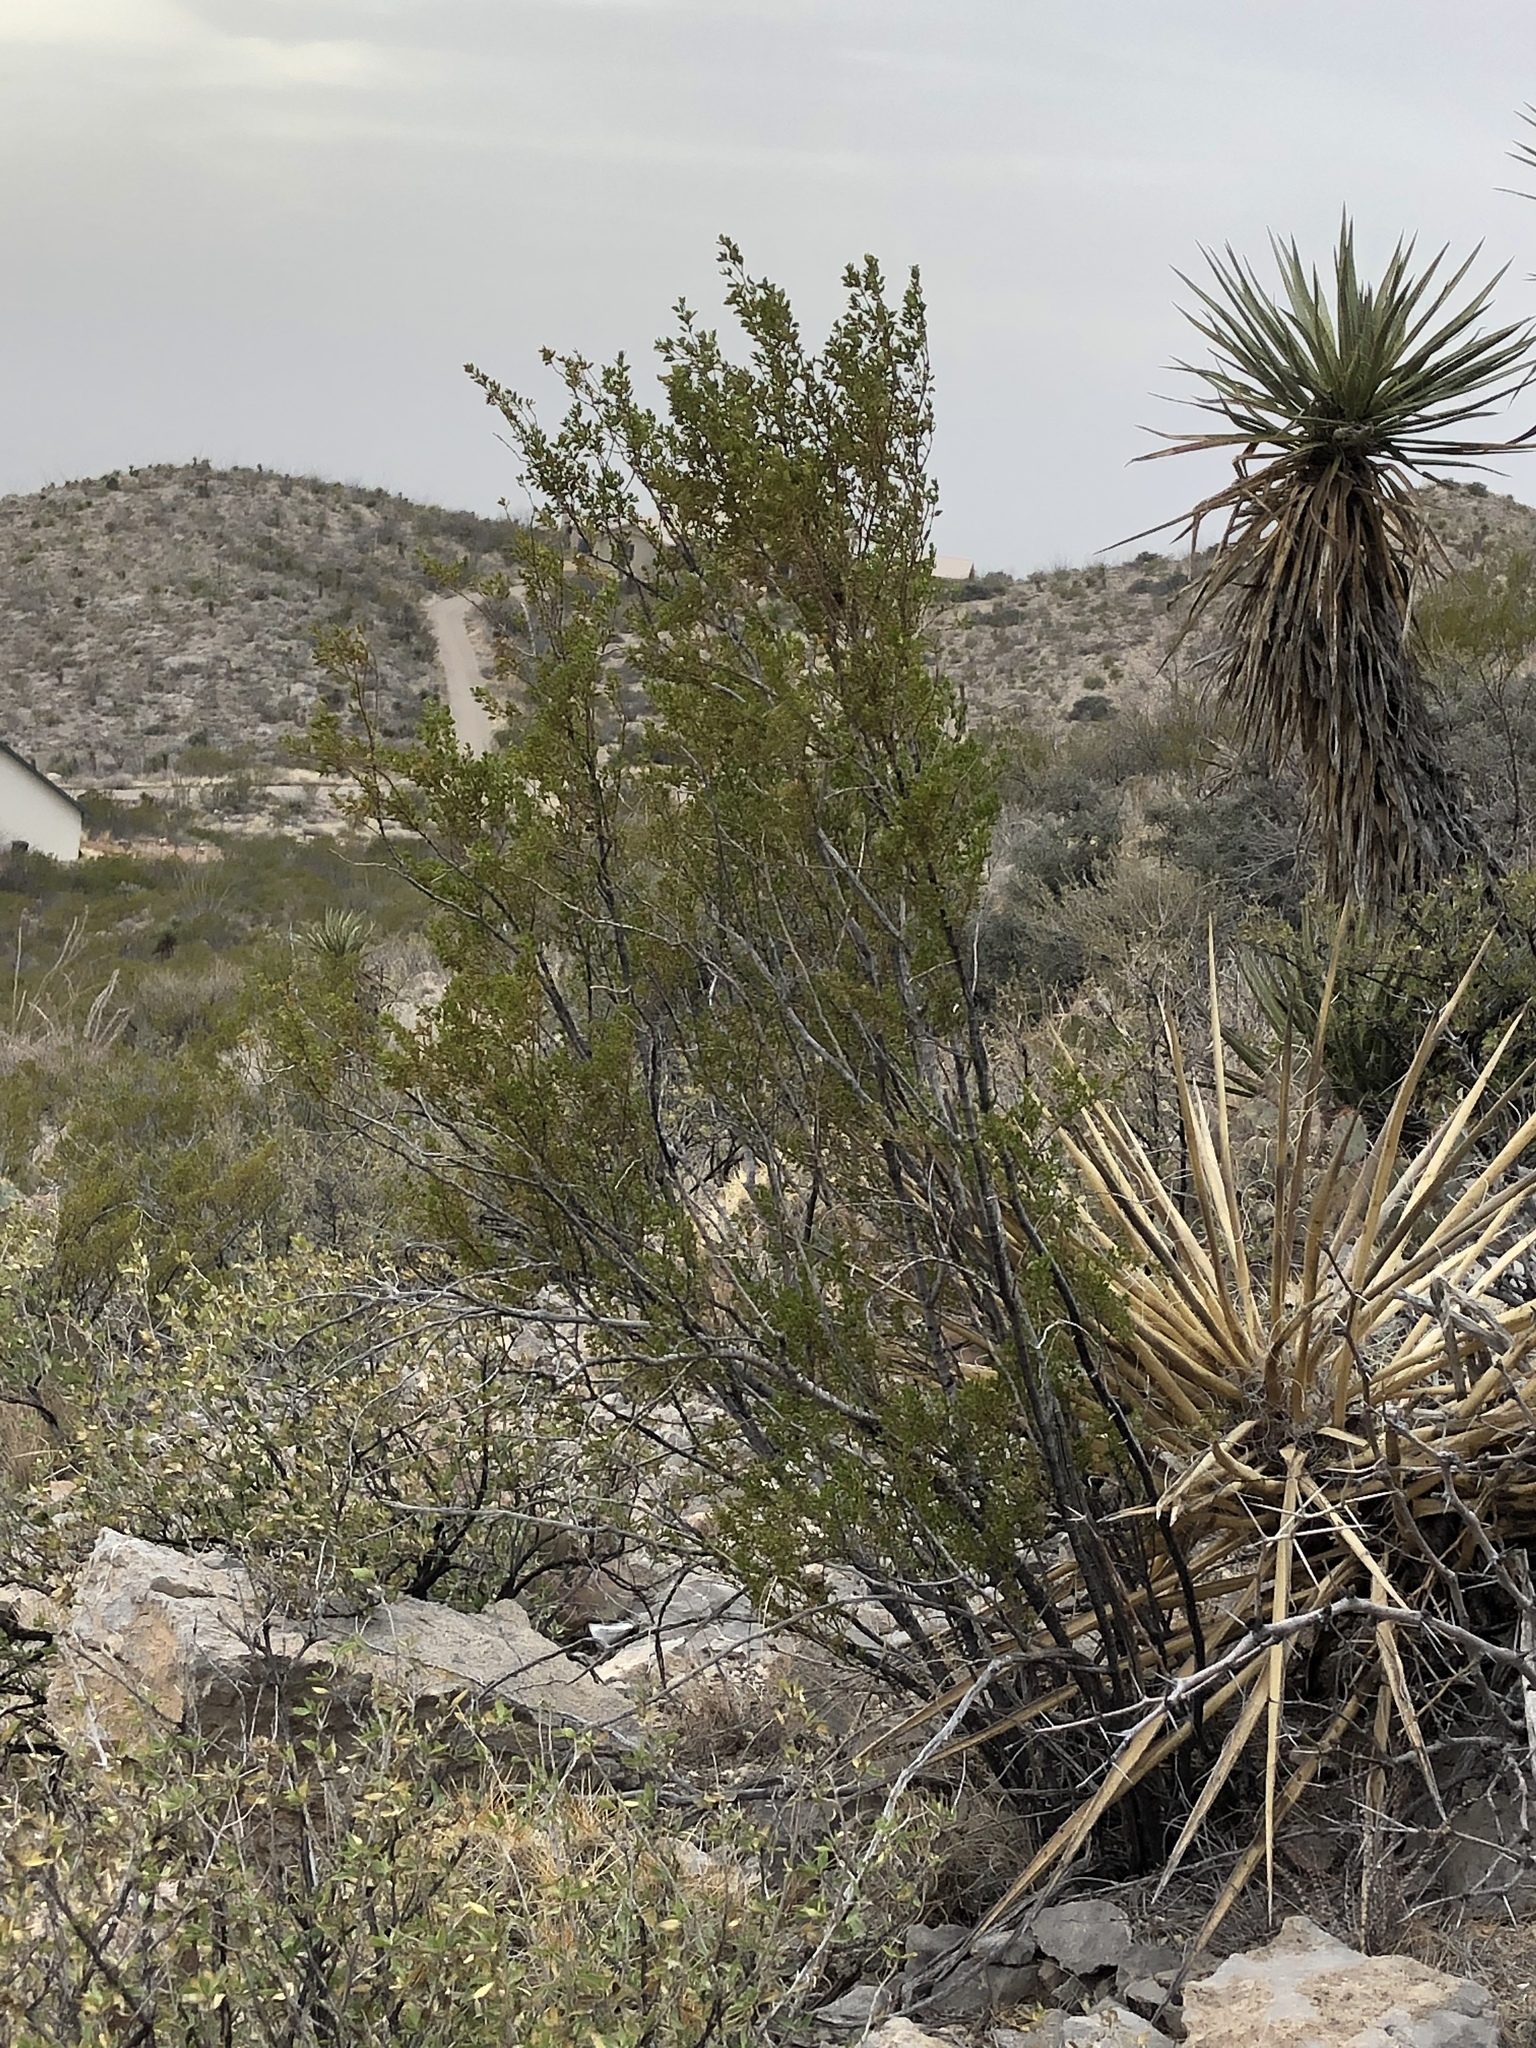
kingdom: Plantae
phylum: Tracheophyta
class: Magnoliopsida
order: Zygophyllales
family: Zygophyllaceae
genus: Larrea
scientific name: Larrea tridentata
